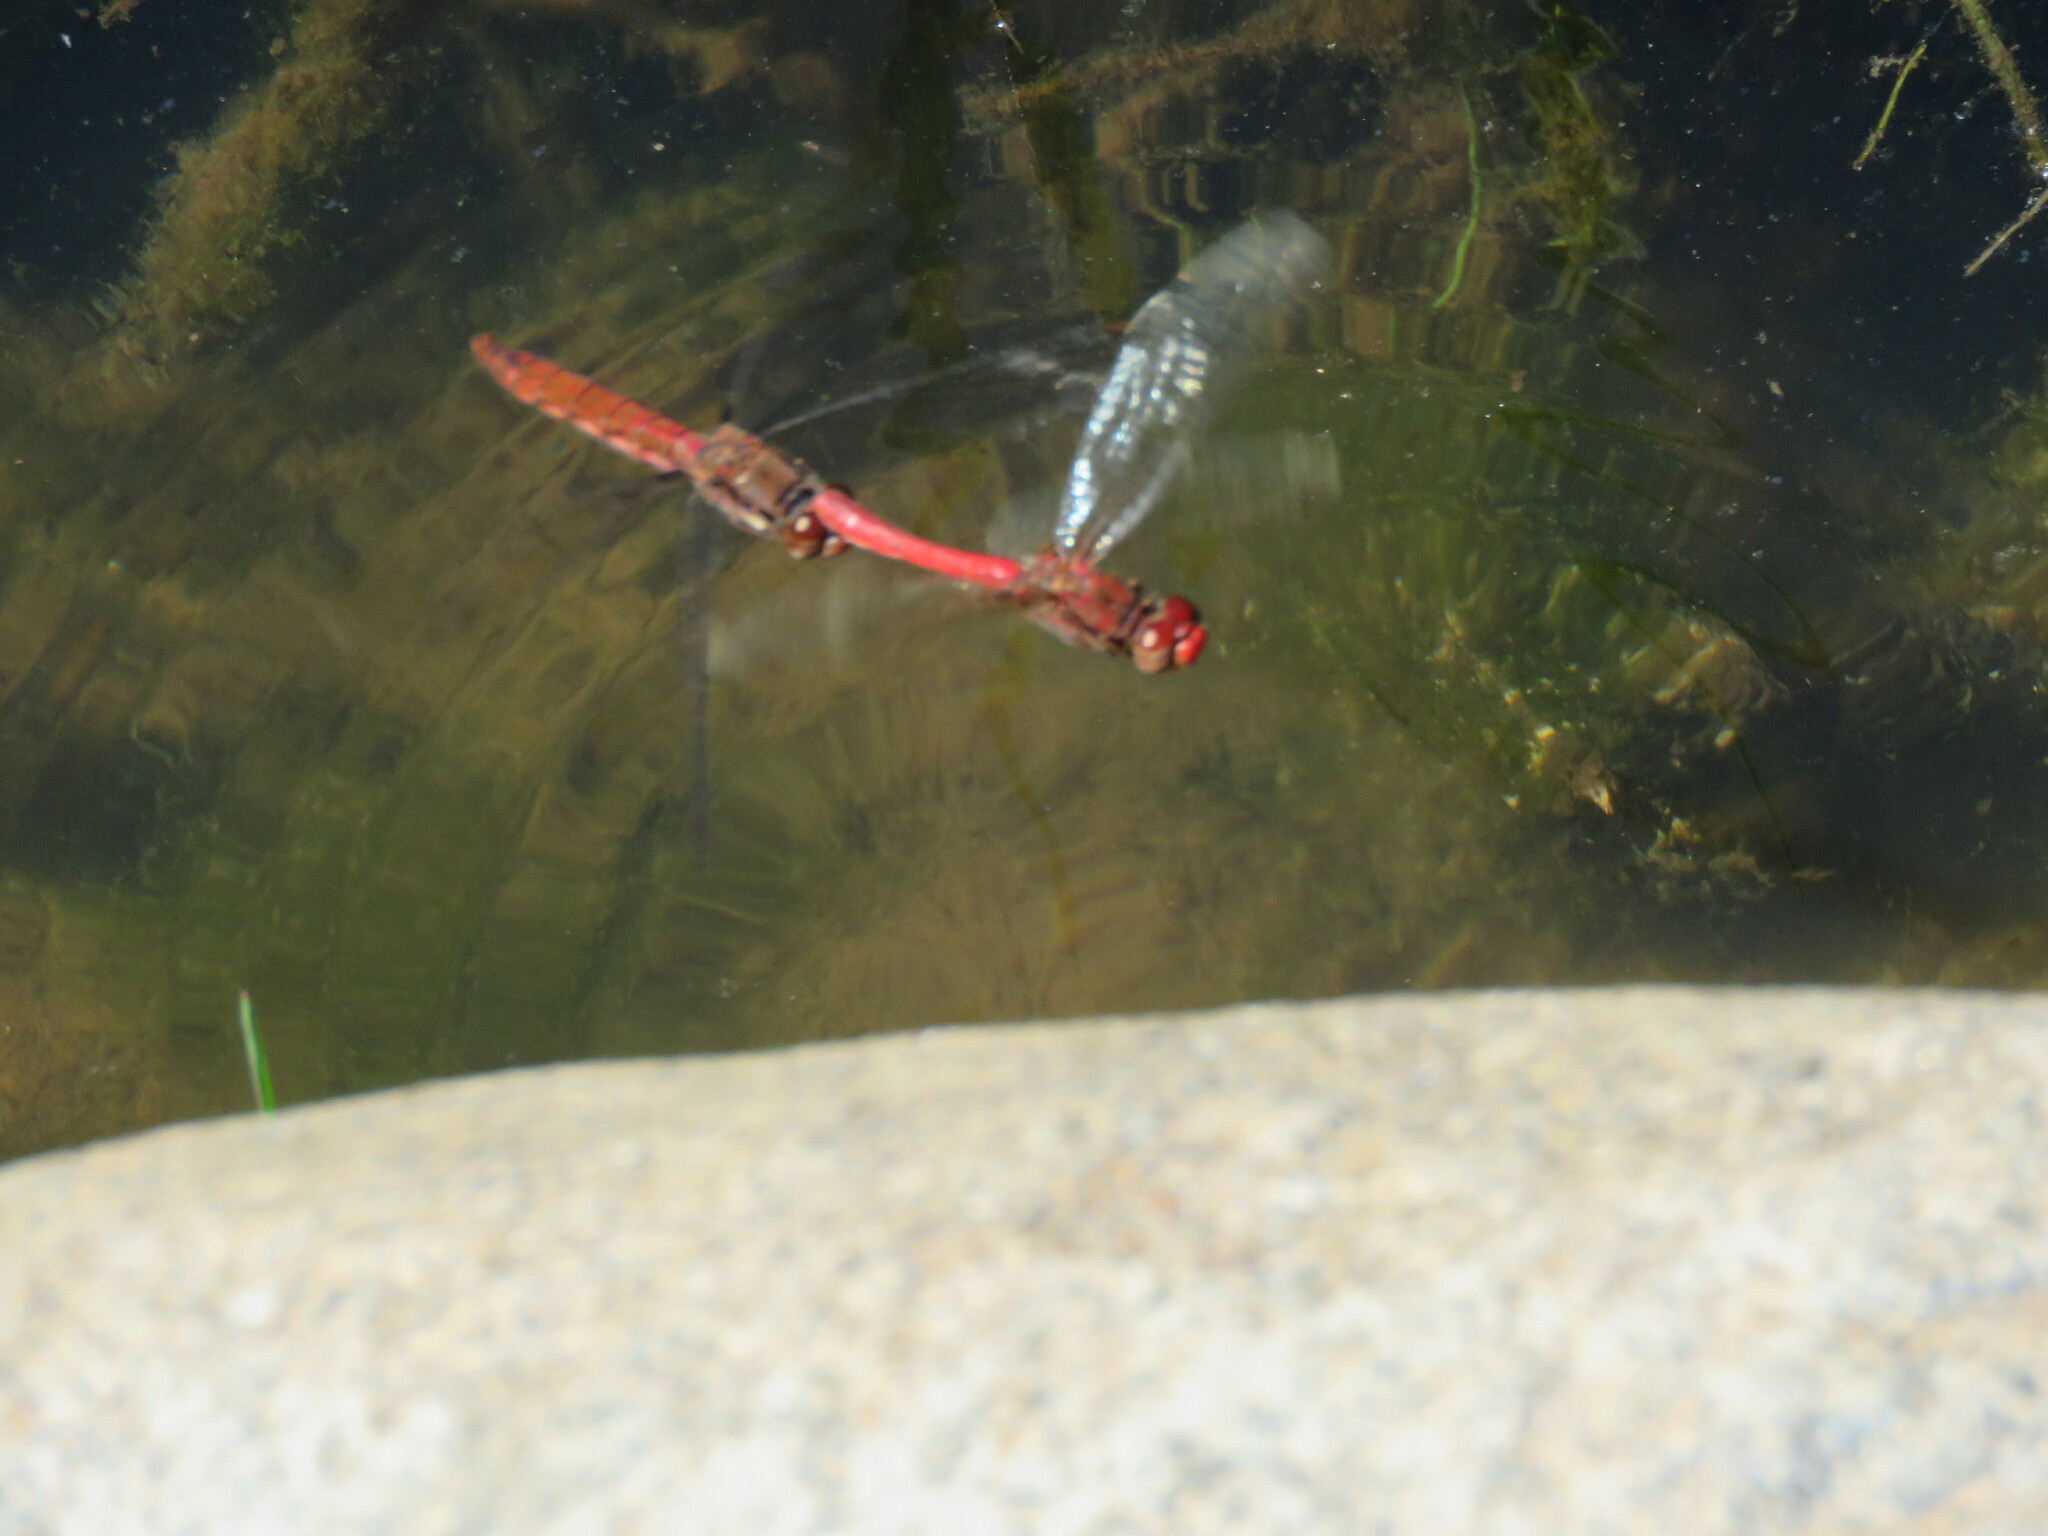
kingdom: Animalia
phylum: Arthropoda
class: Insecta
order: Odonata
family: Libellulidae
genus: Sympetrum
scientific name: Sympetrum gilvum
